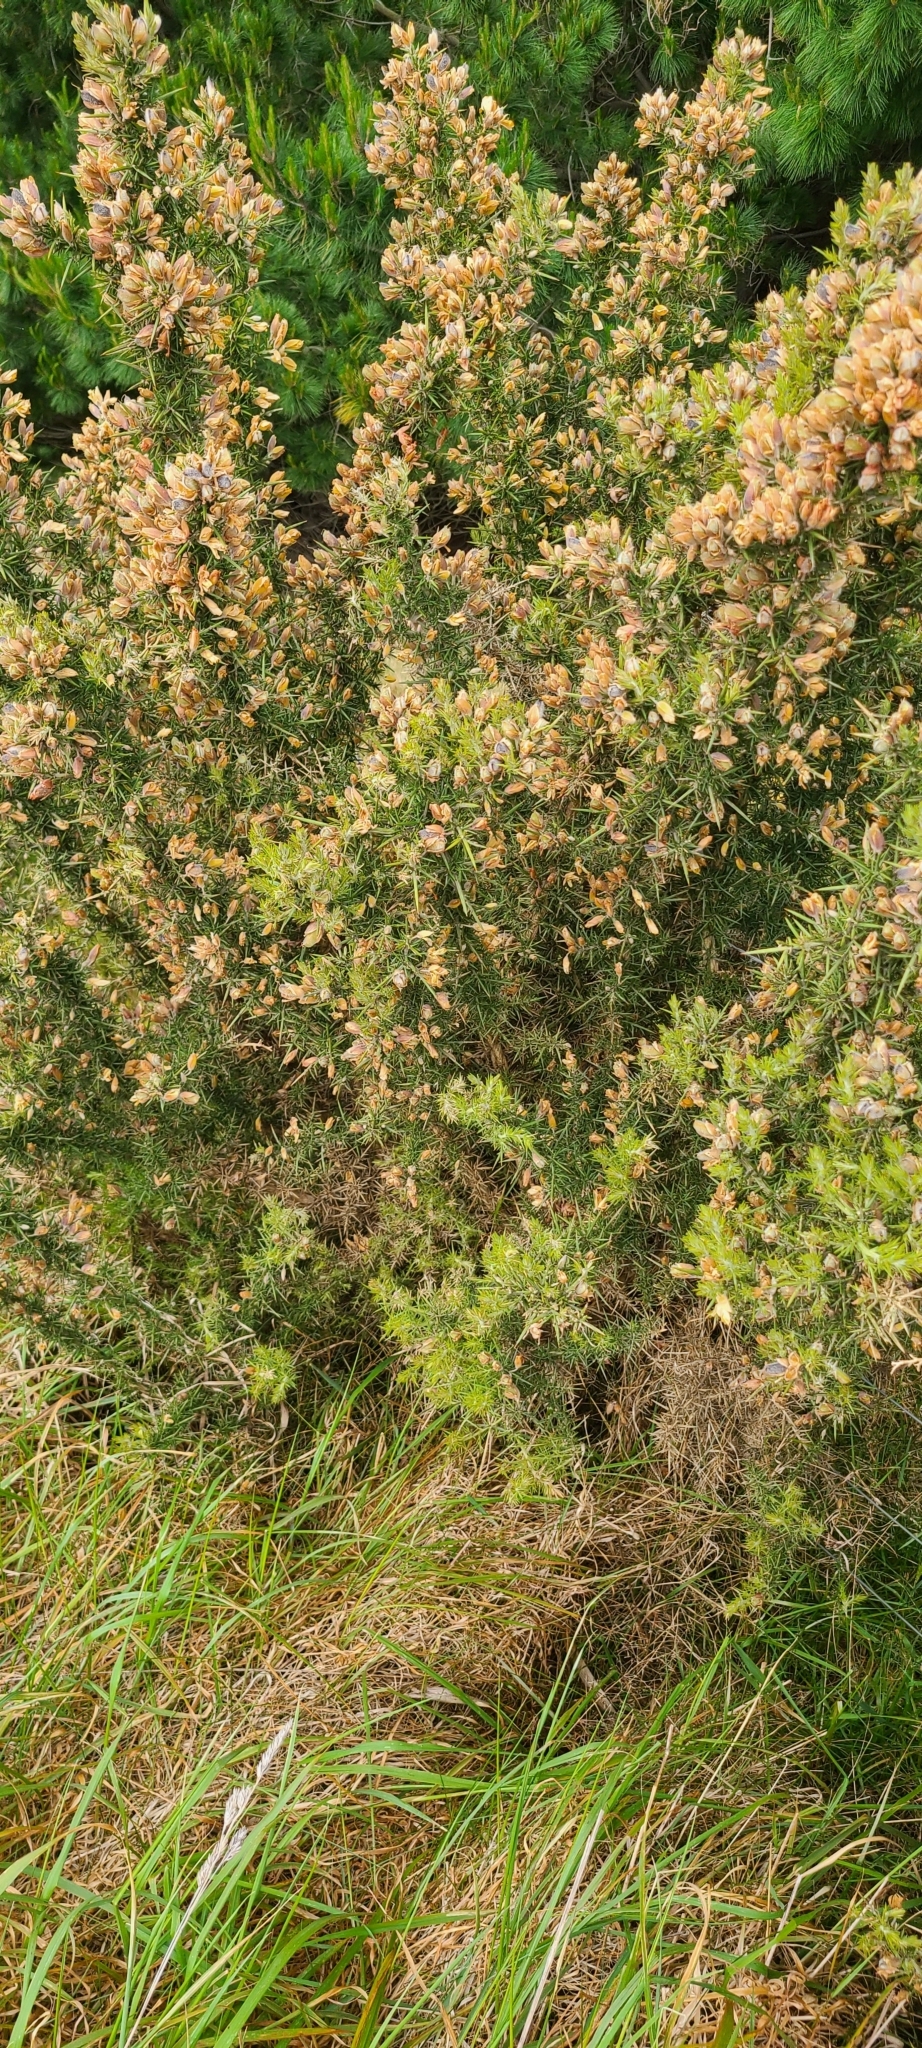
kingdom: Plantae
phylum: Tracheophyta
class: Magnoliopsida
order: Fabales
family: Fabaceae
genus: Ulex
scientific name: Ulex europaeus
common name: Common gorse
